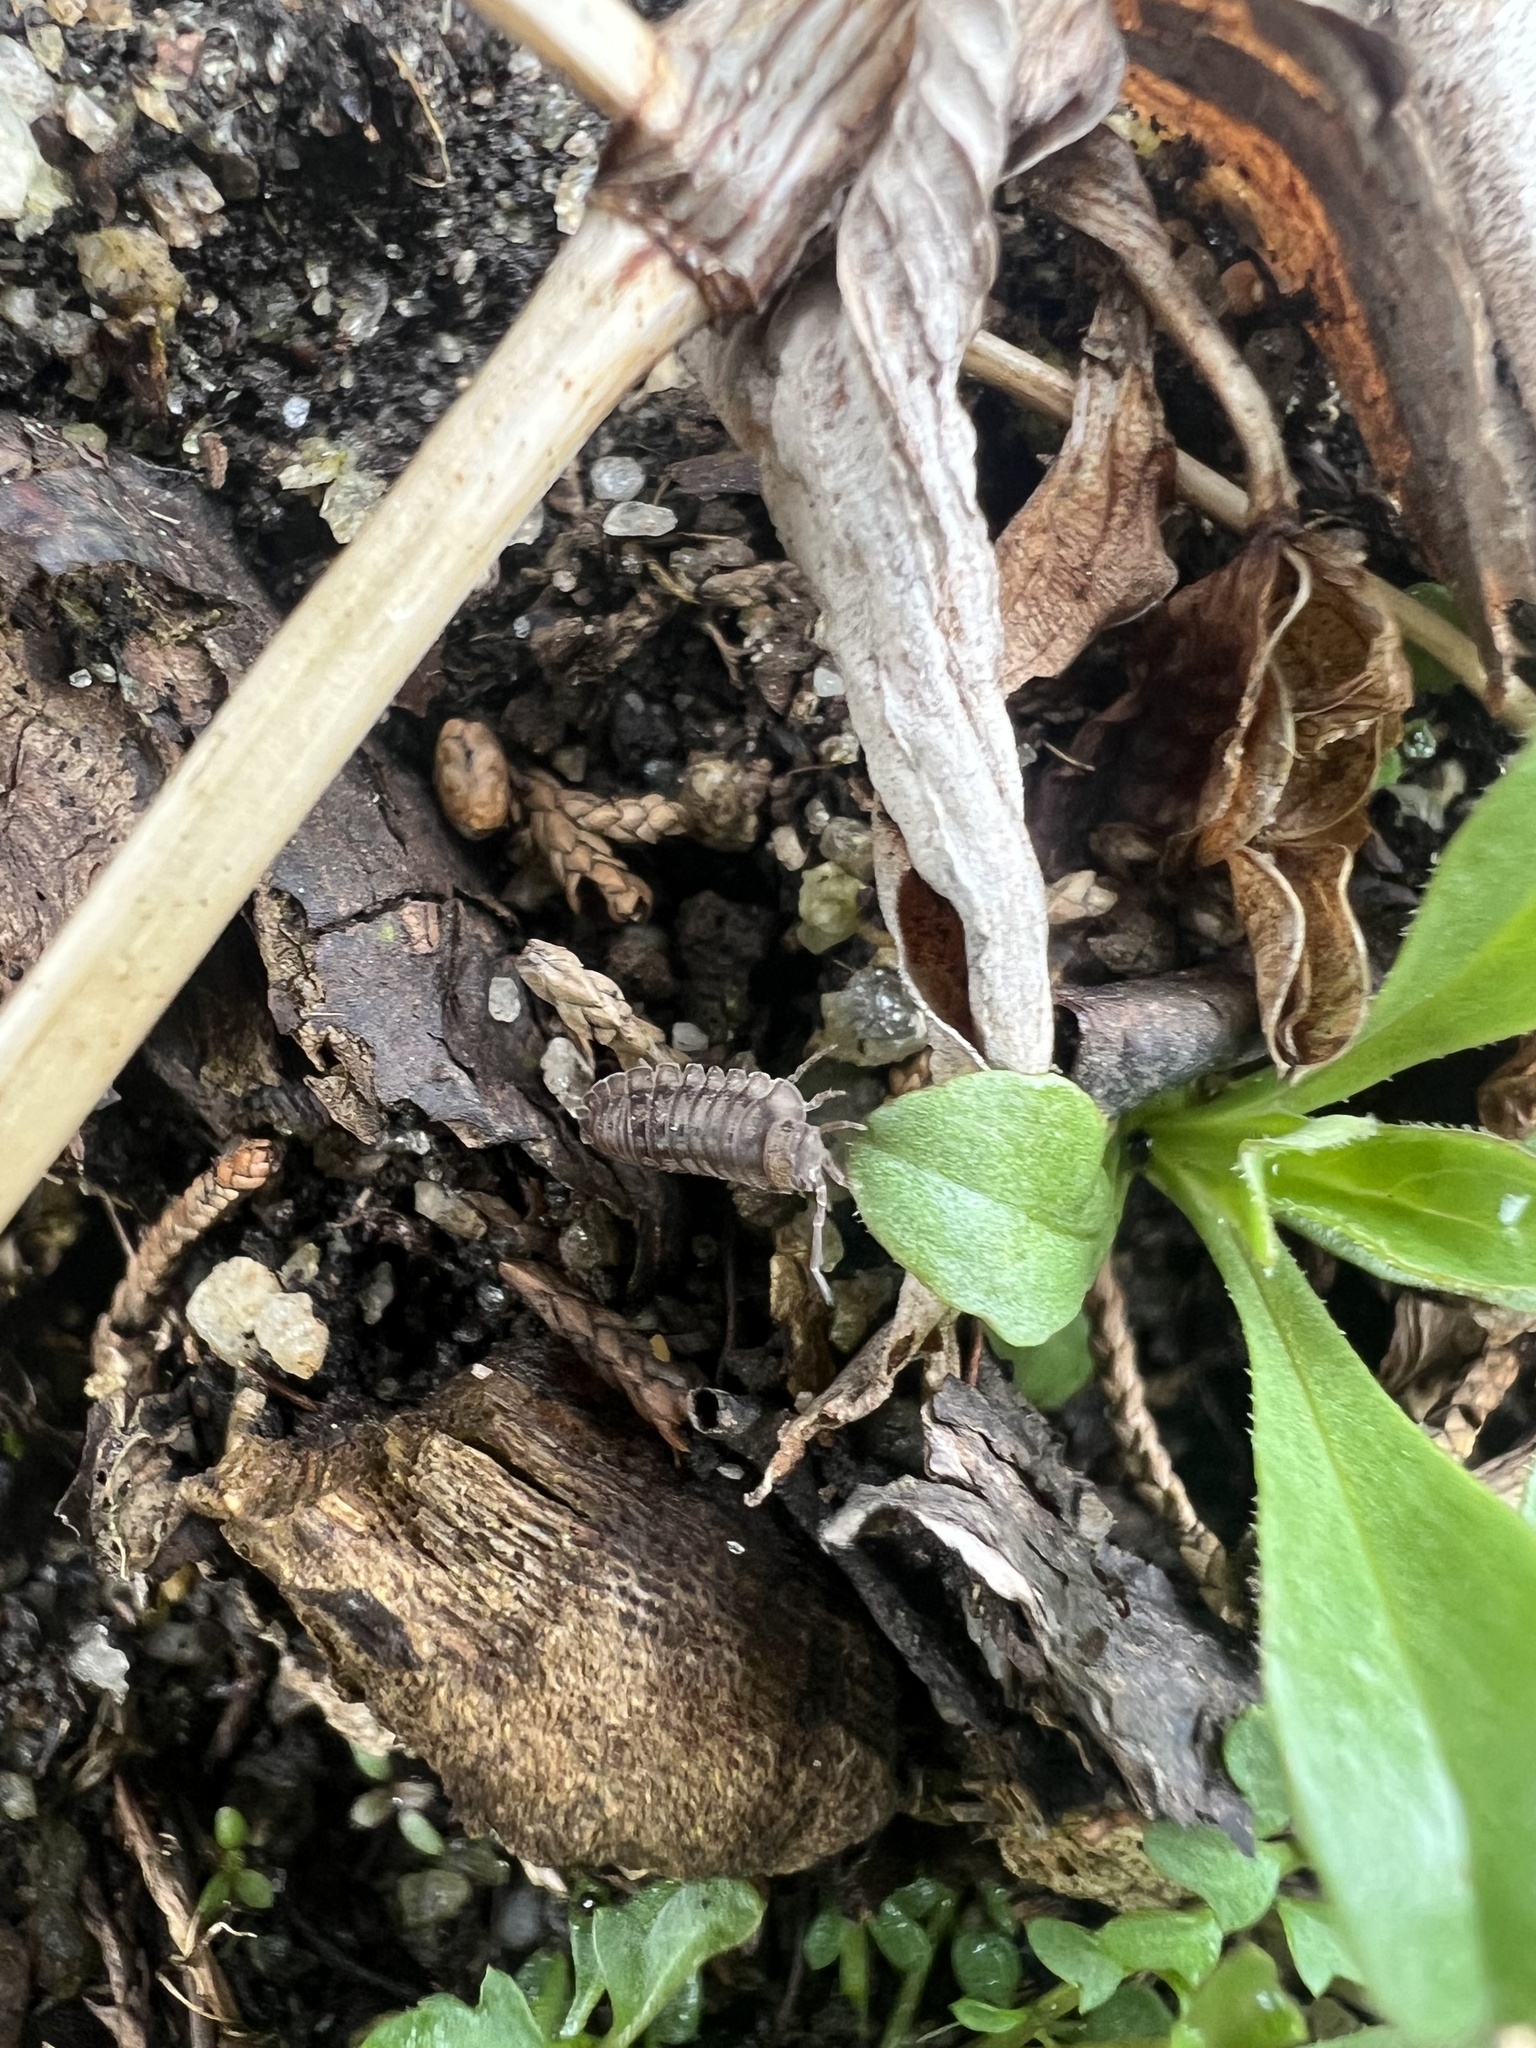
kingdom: Animalia
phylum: Arthropoda
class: Malacostraca
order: Isopoda
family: Armadillidiidae
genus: Armadillidium
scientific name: Armadillidium nasatum
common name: Isopod
